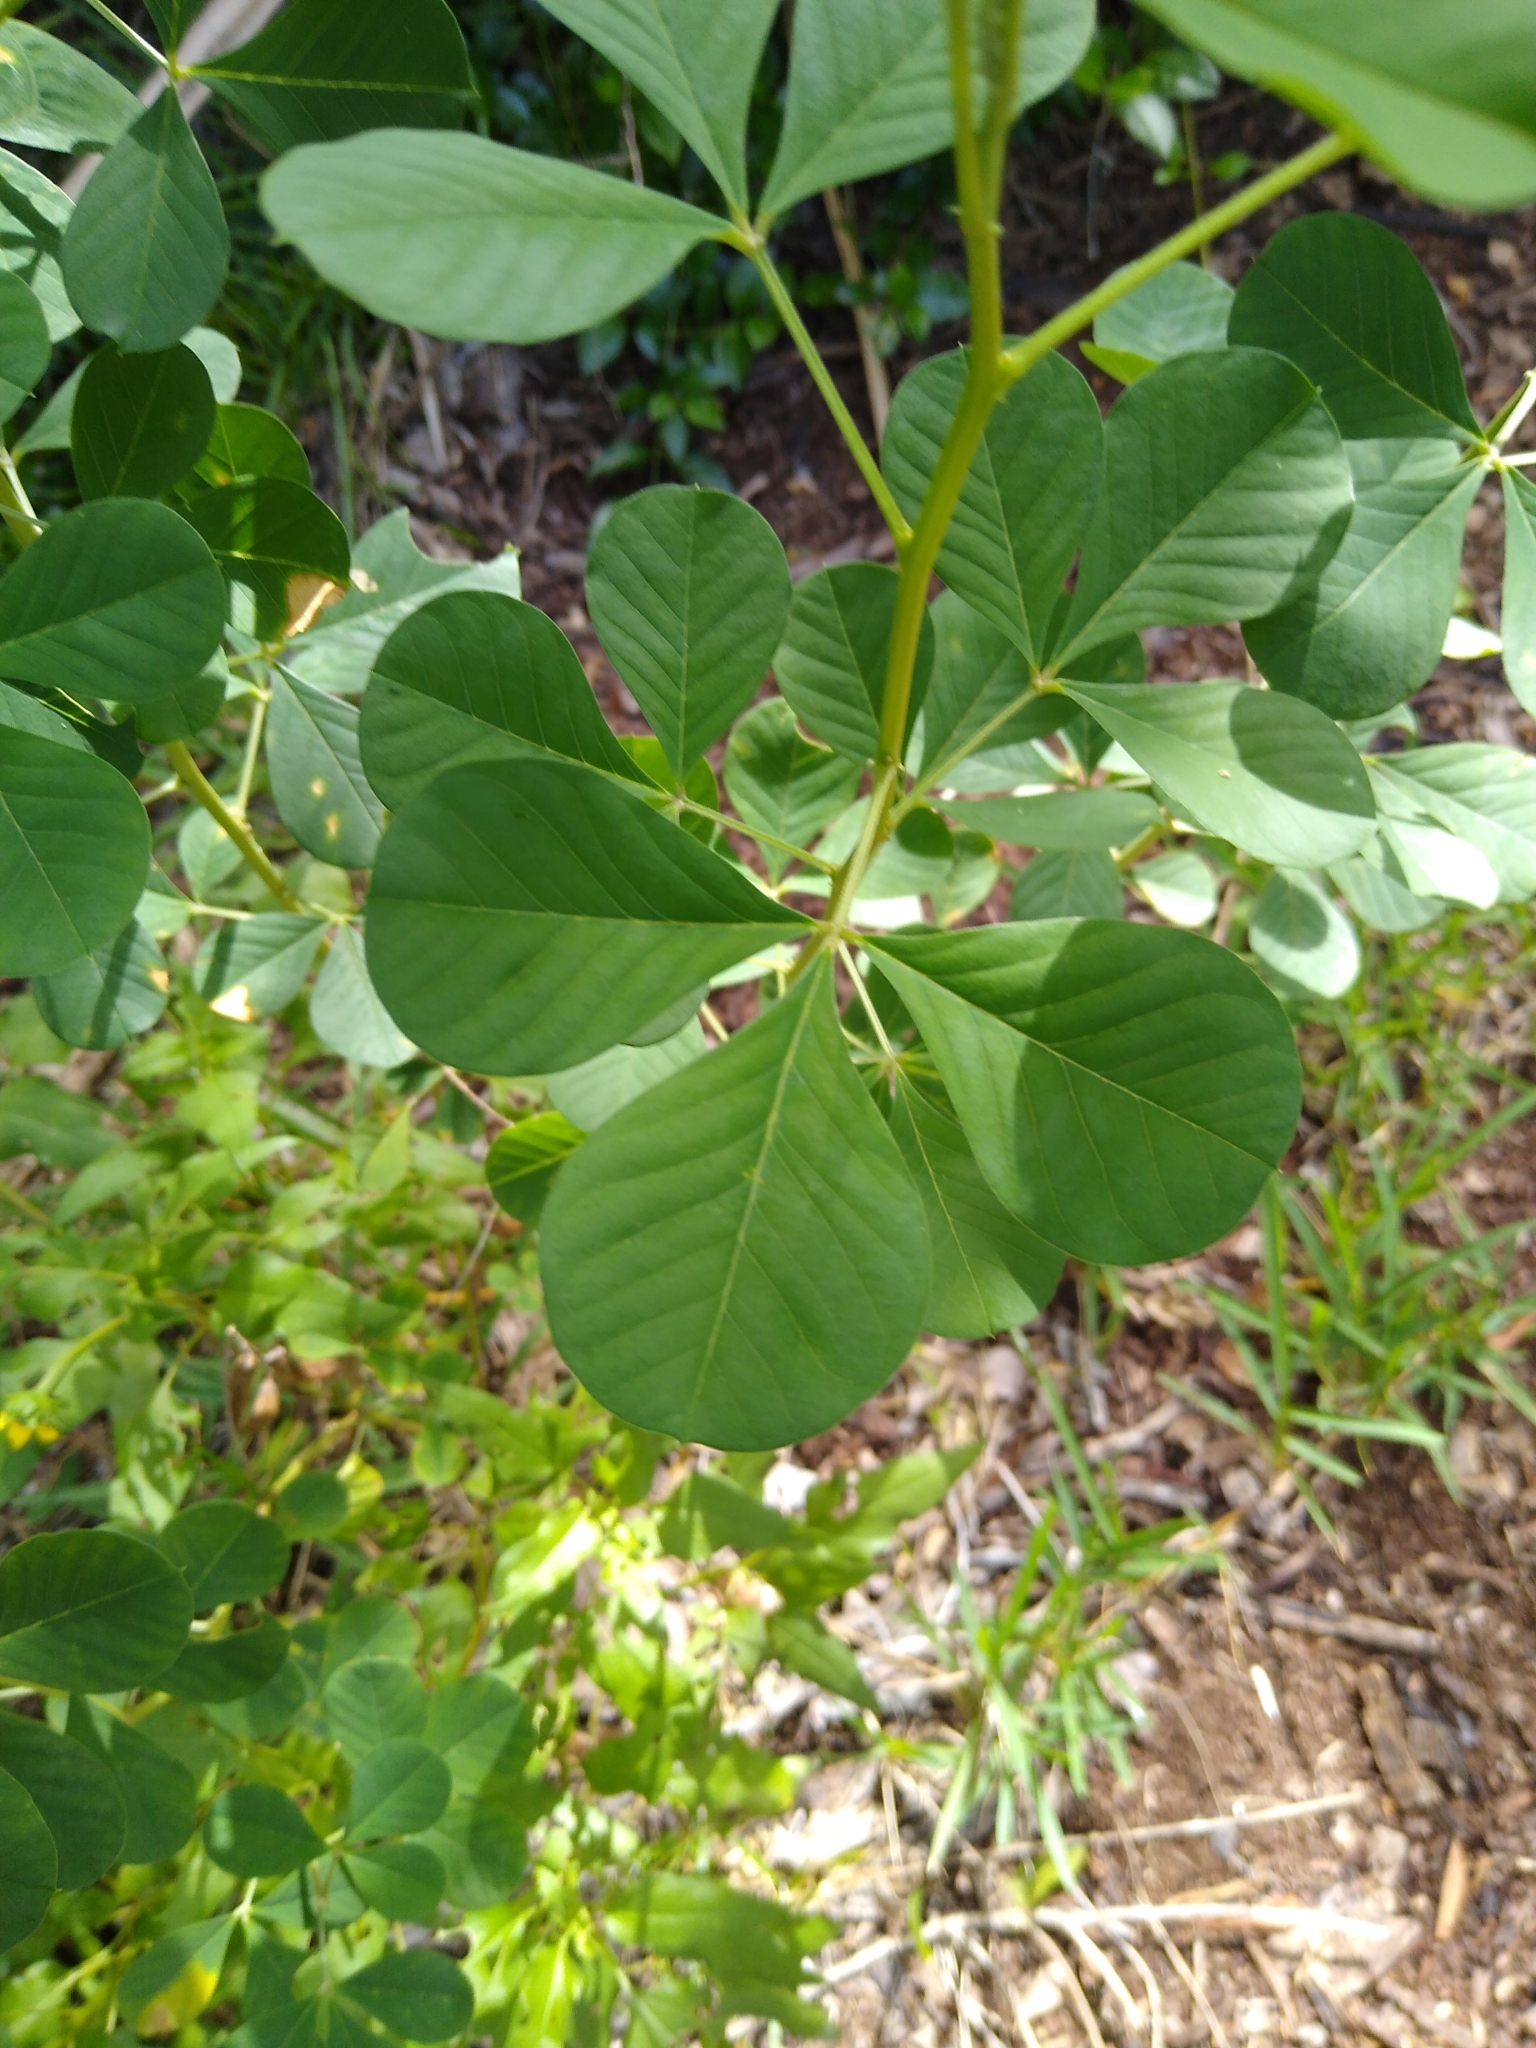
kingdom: Plantae
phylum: Tracheophyta
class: Magnoliopsida
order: Fabales
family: Fabaceae
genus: Crotalaria
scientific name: Crotalaria pallida
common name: Smooth rattlebox
